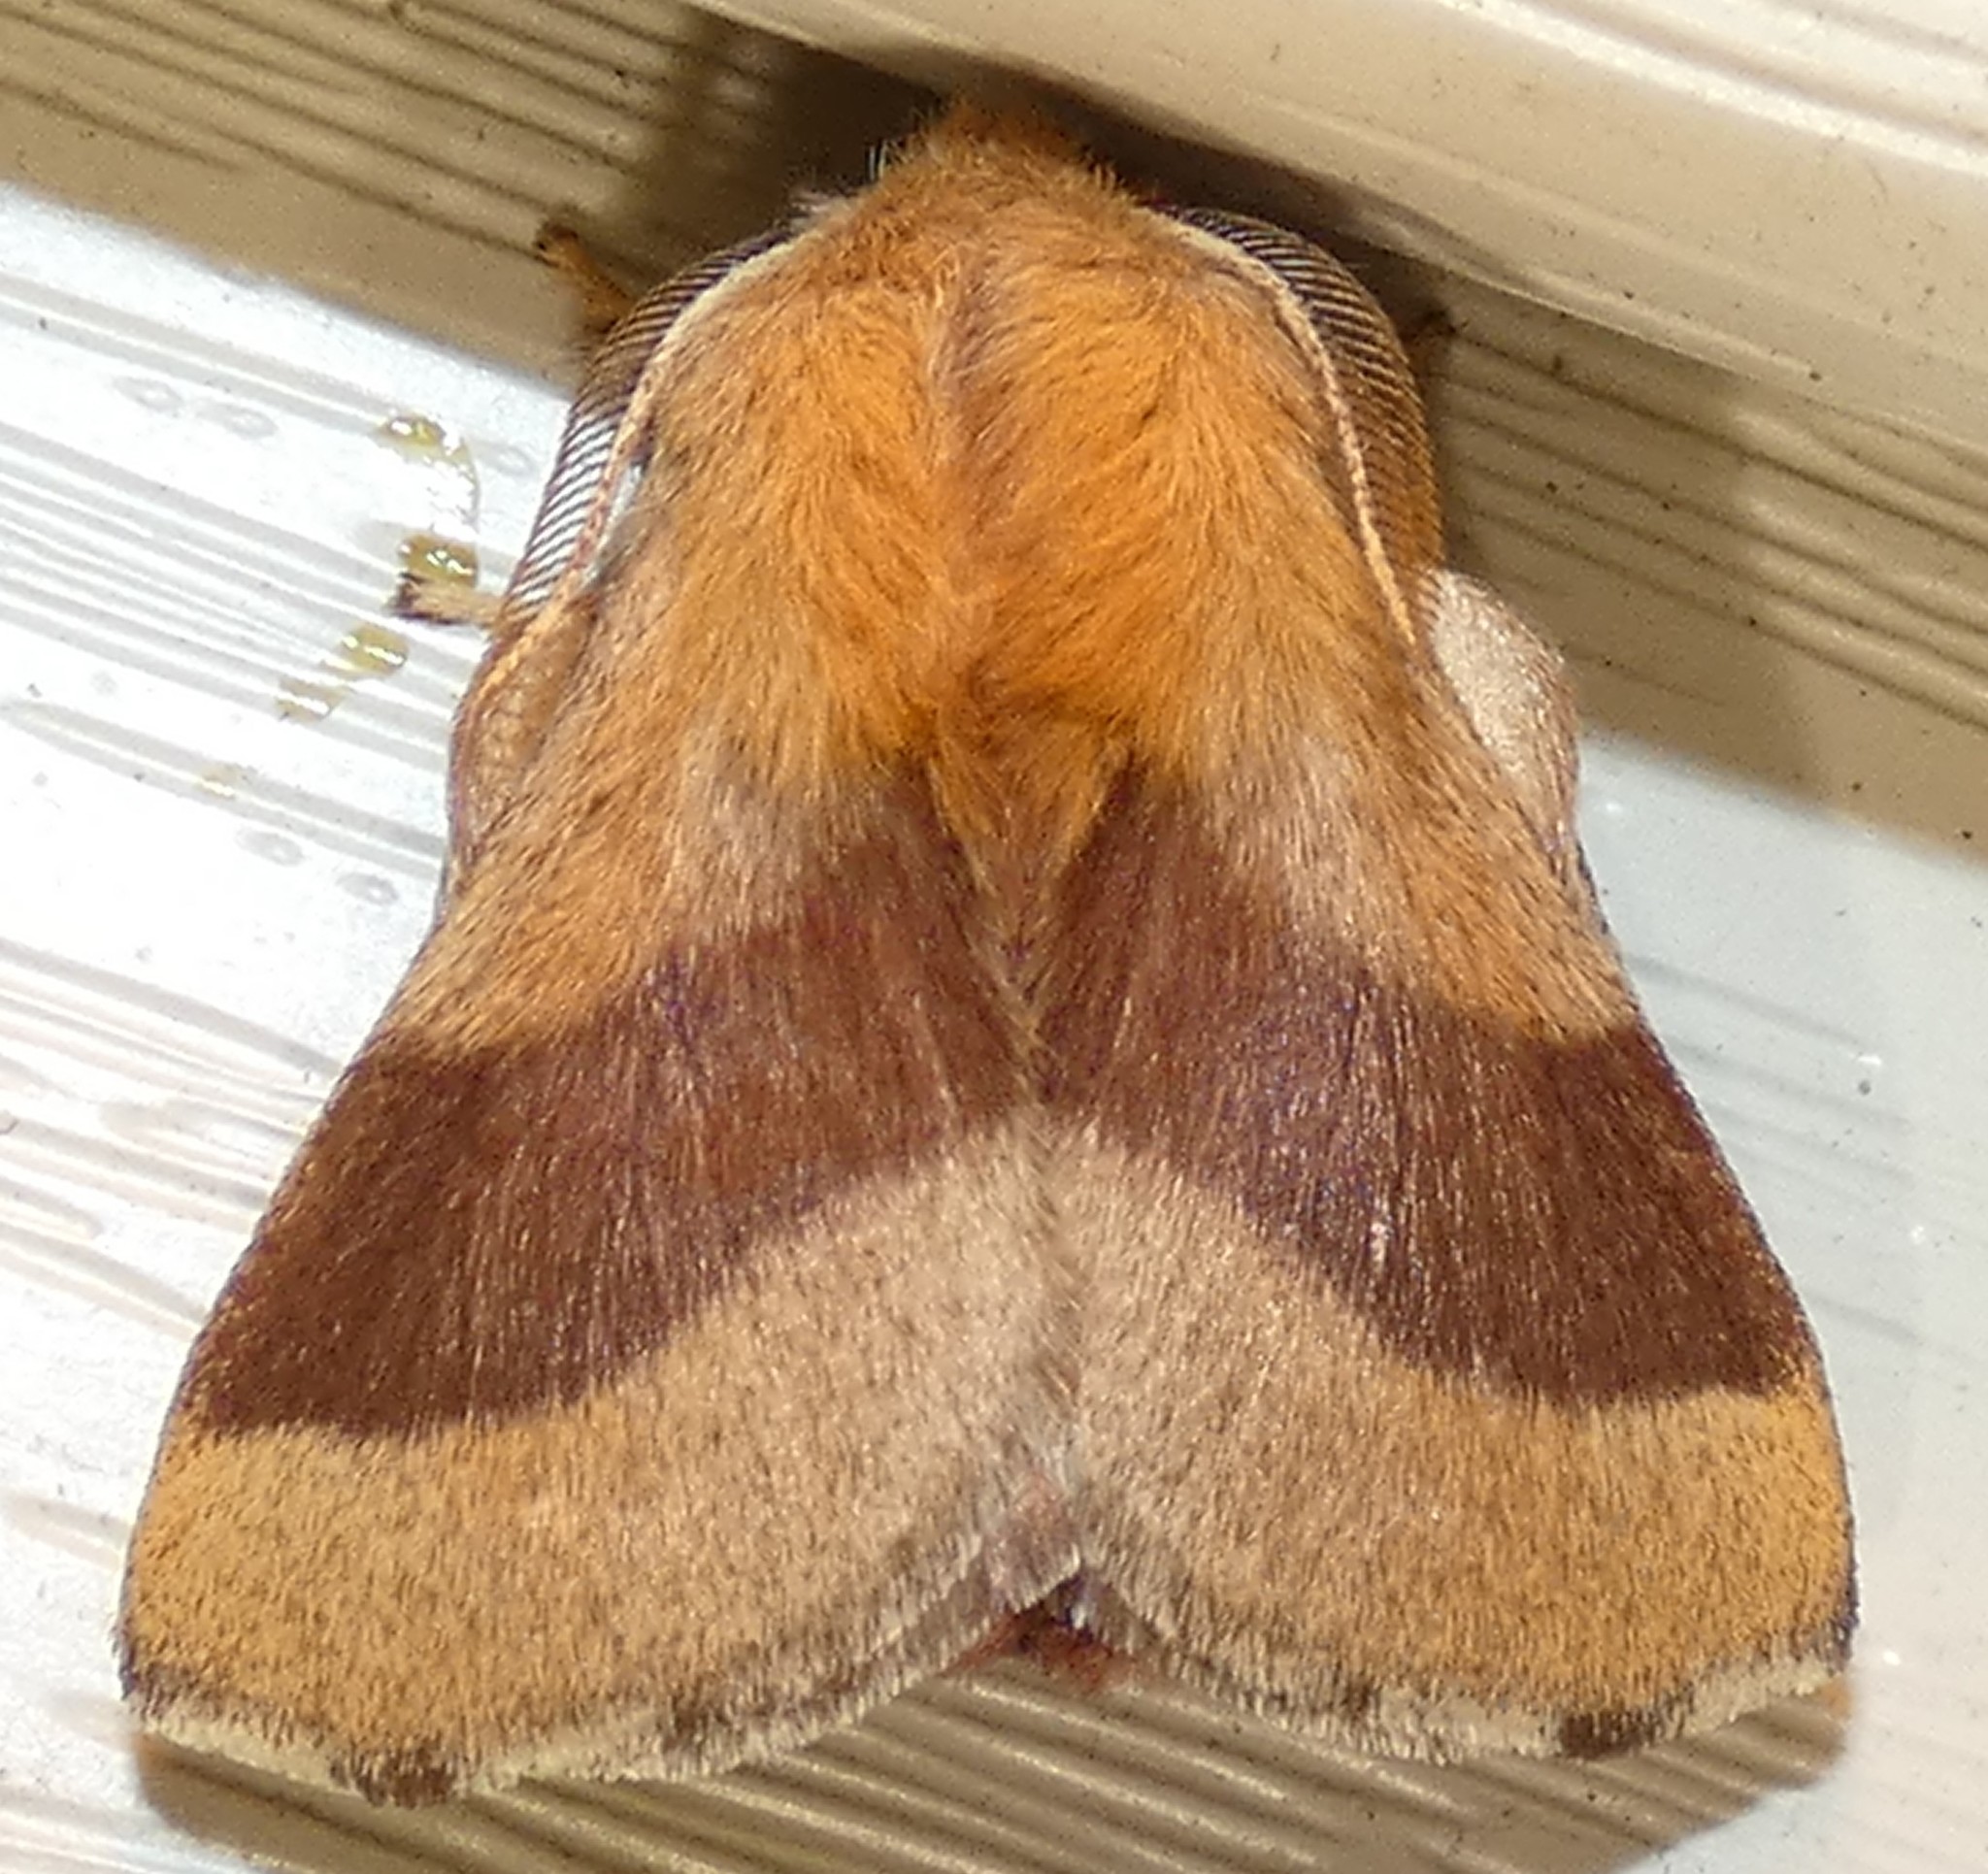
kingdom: Animalia
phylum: Arthropoda
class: Insecta
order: Lepidoptera
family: Lasiocampidae
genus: Malacosoma
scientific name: Malacosoma disstria
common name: Forest tent caterpillar
